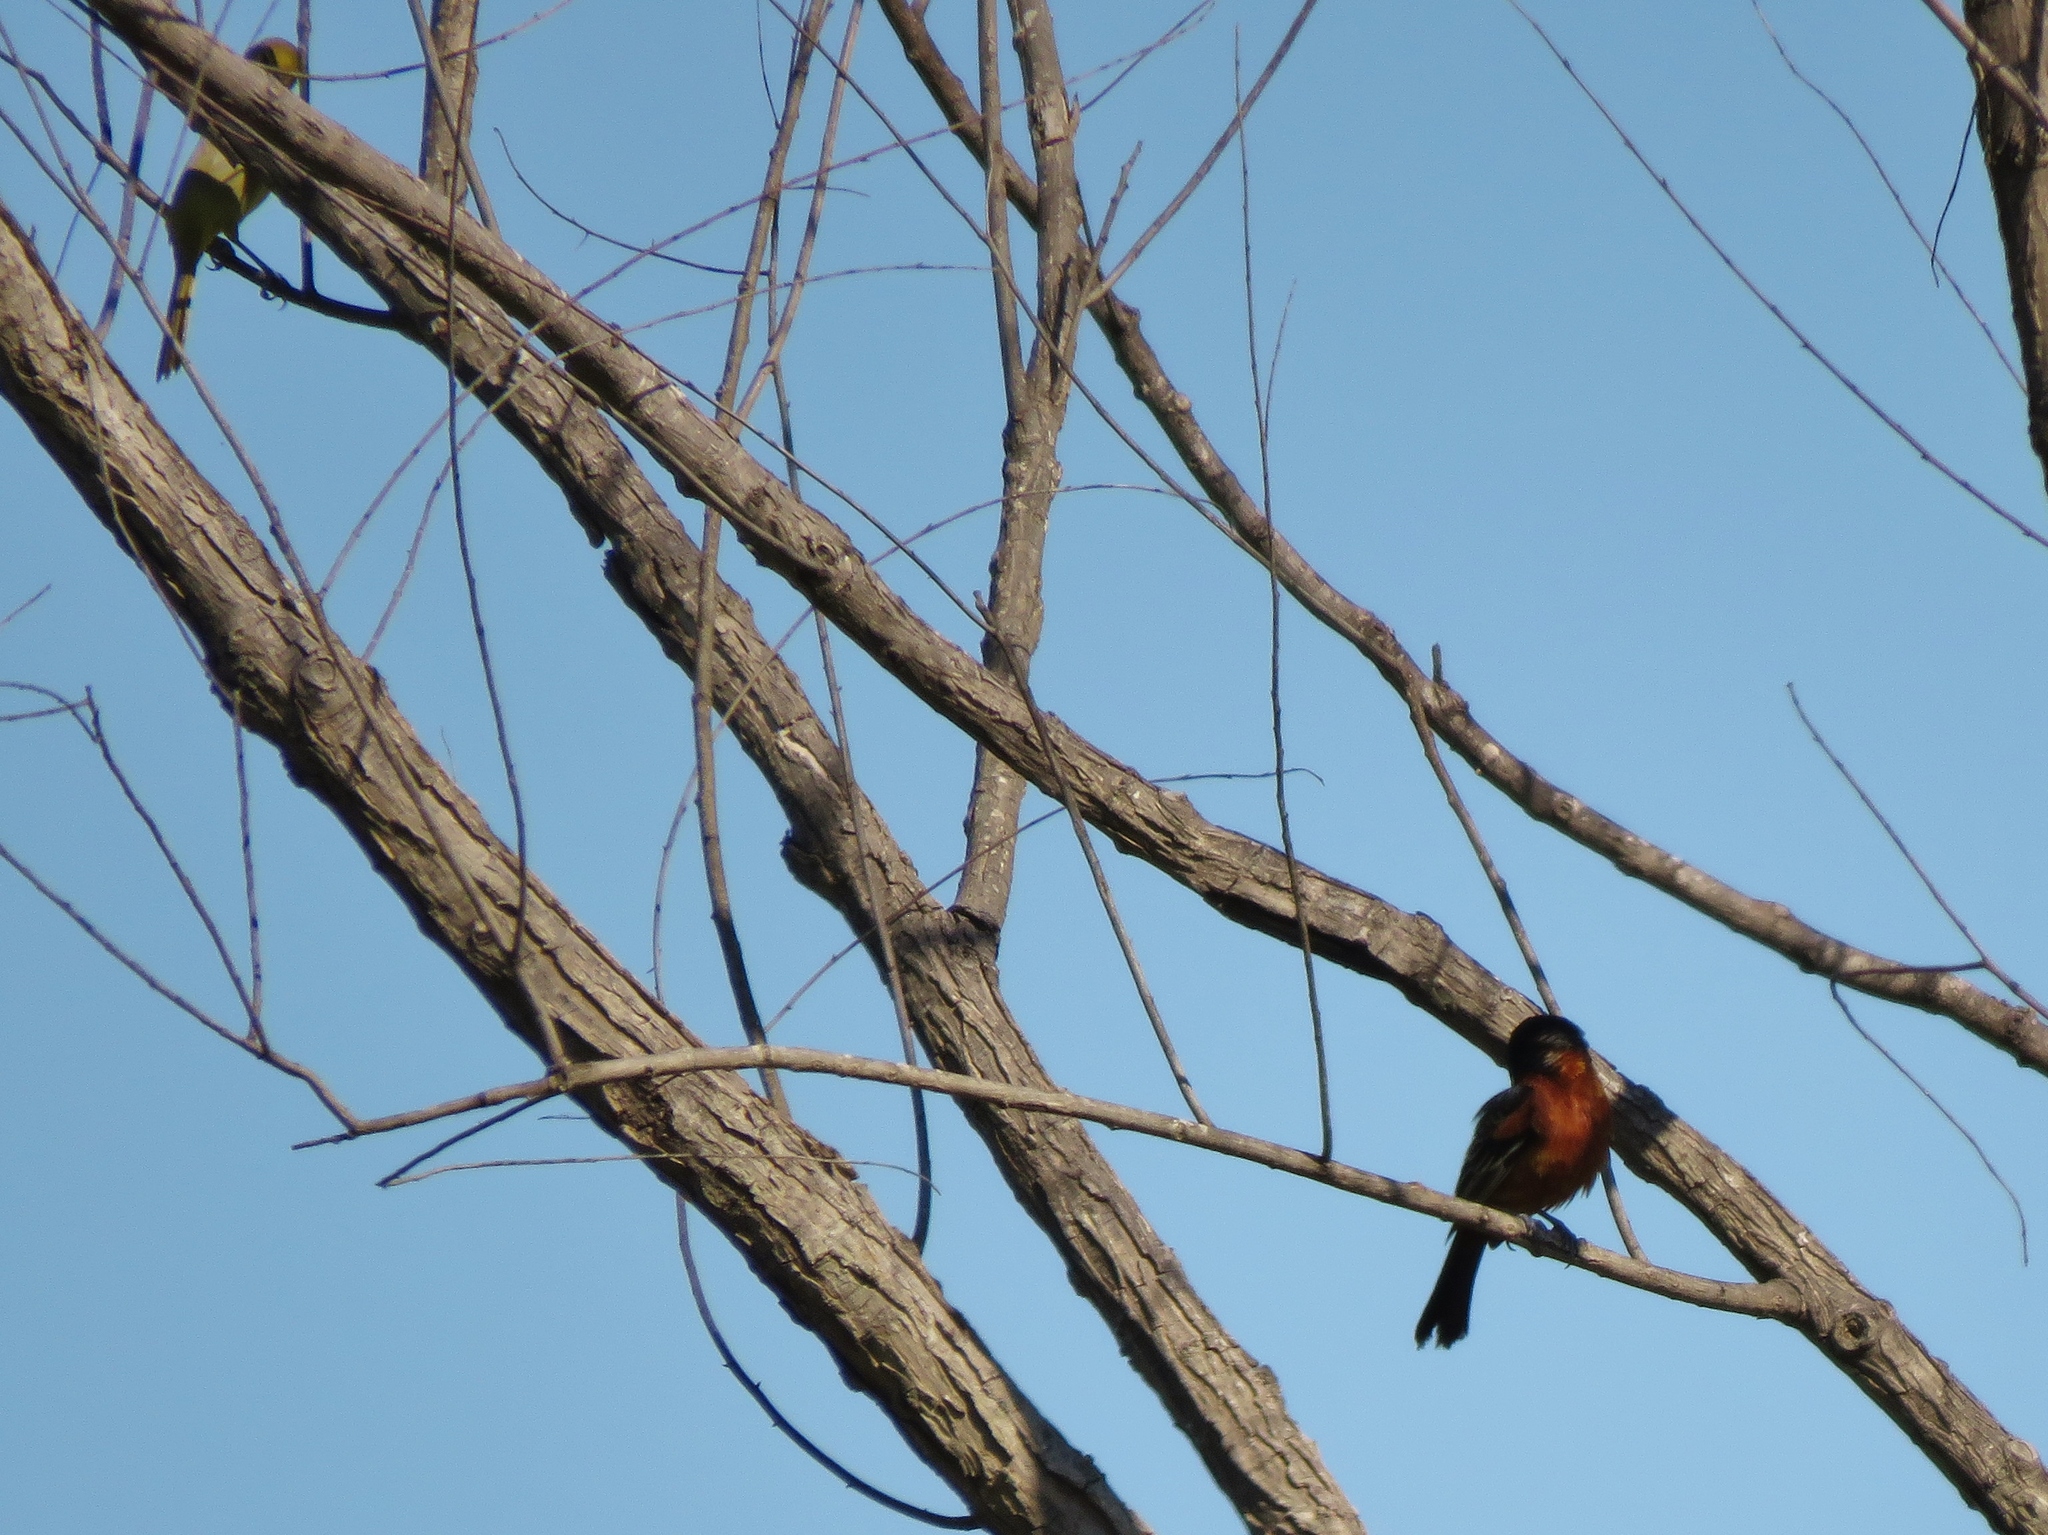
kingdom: Animalia
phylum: Chordata
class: Aves
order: Passeriformes
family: Icteridae
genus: Icterus
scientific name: Icterus spurius
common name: Orchard oriole
